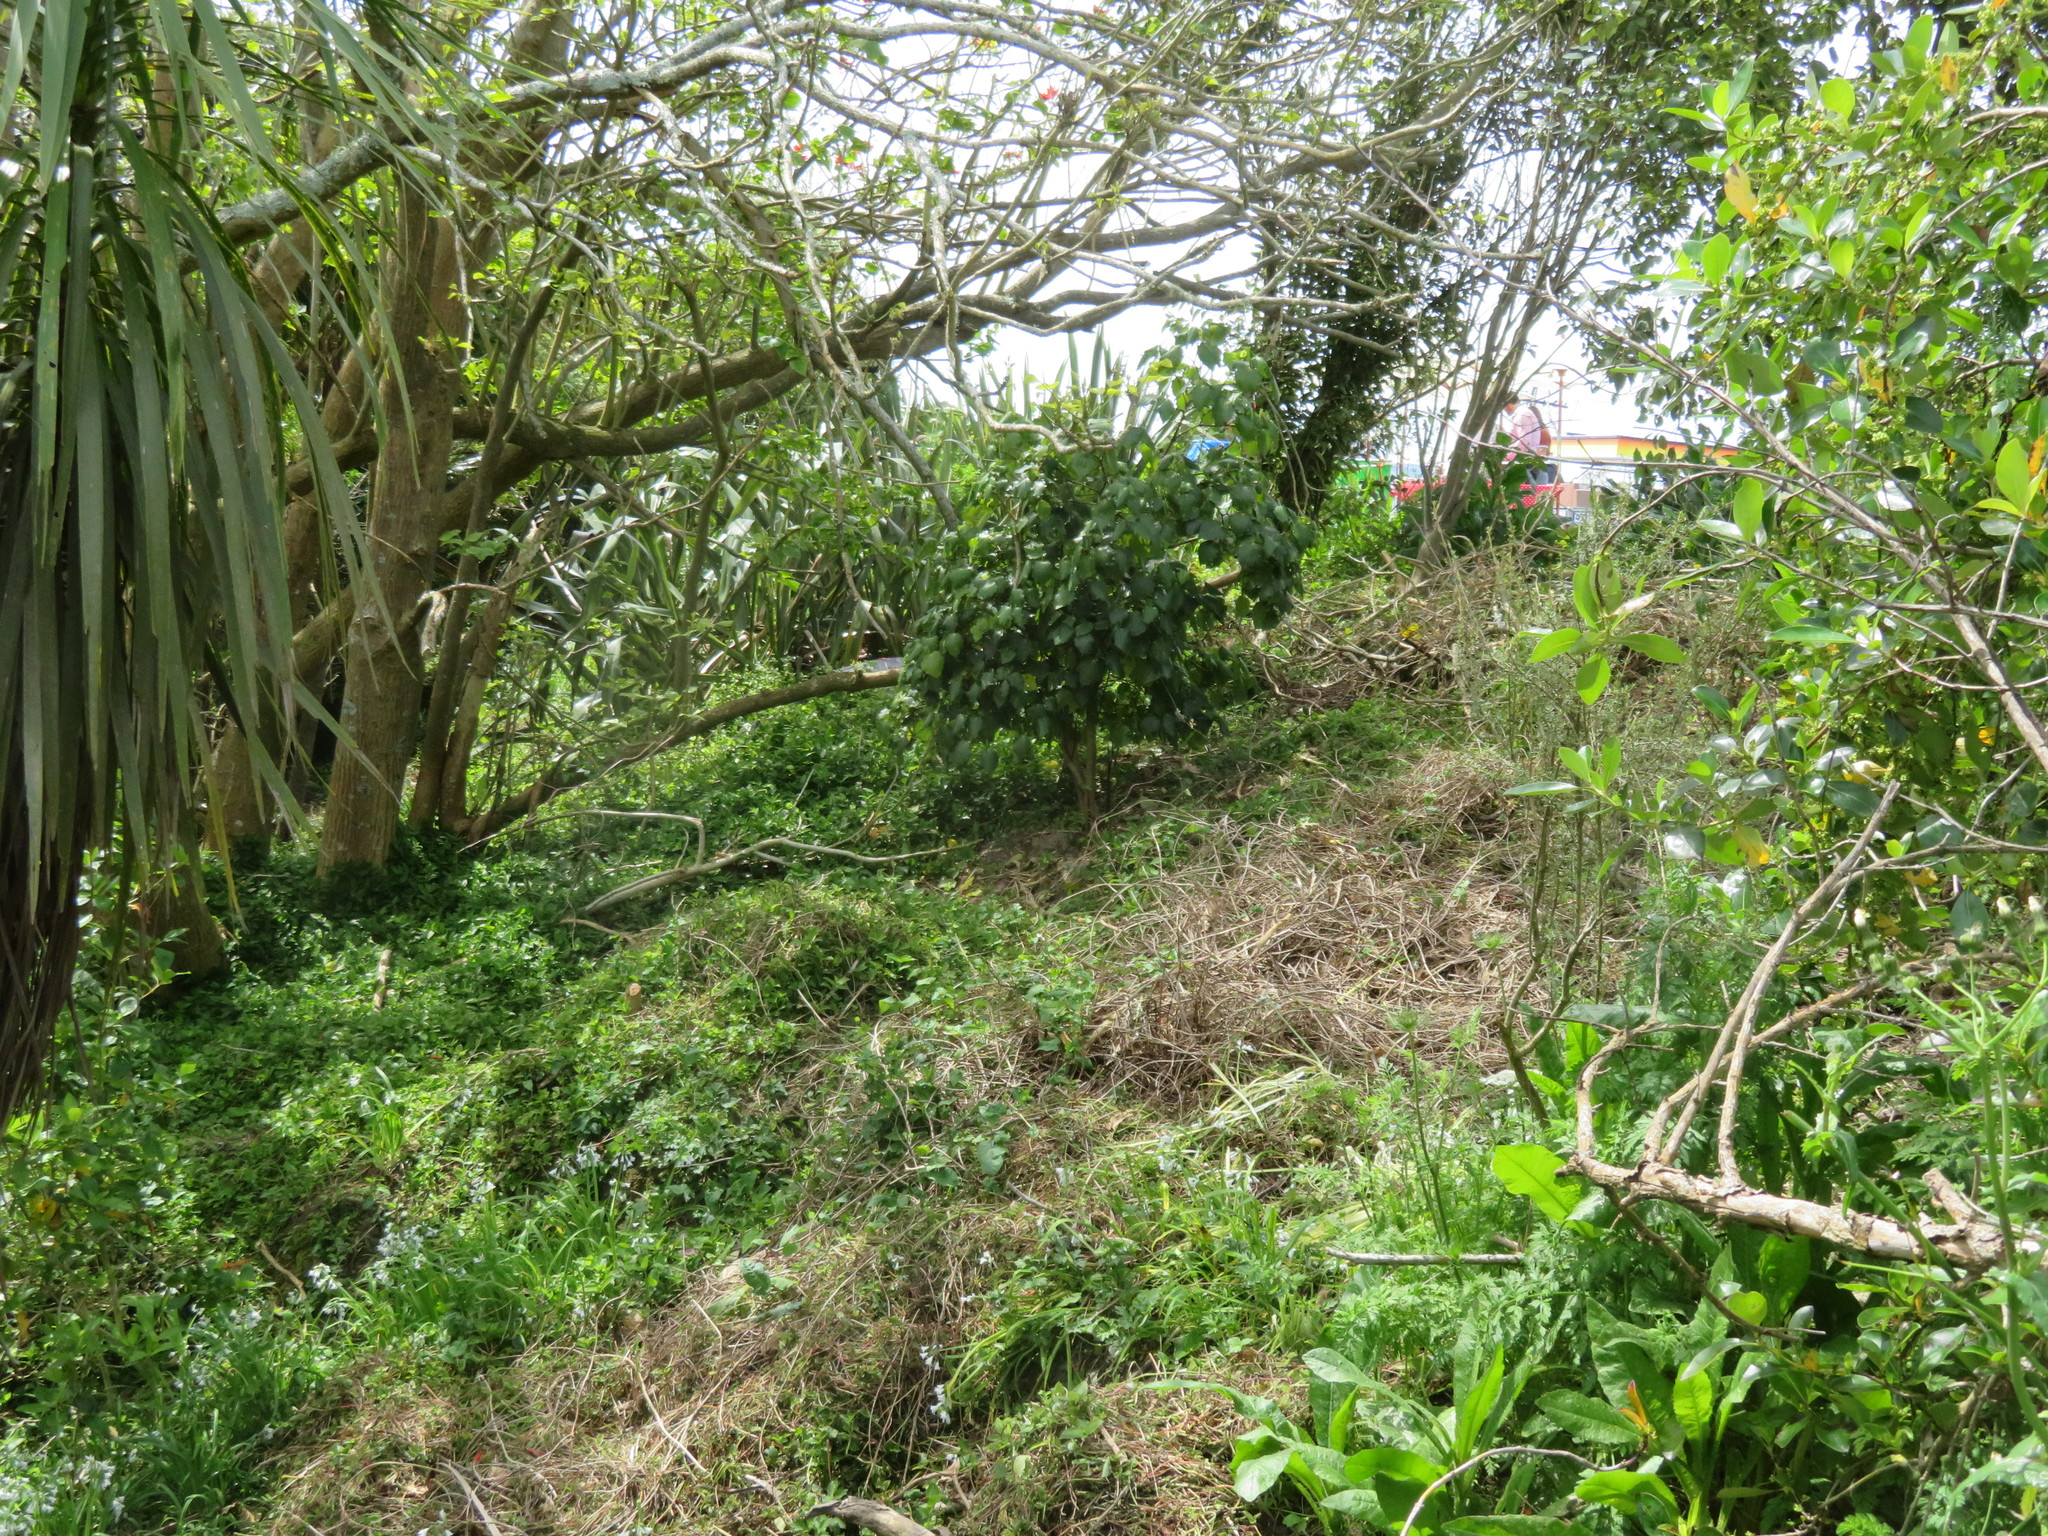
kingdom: Plantae
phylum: Tracheophyta
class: Liliopsida
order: Commelinales
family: Commelinaceae
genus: Tradescantia
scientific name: Tradescantia fluminensis
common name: Wandering-jew
